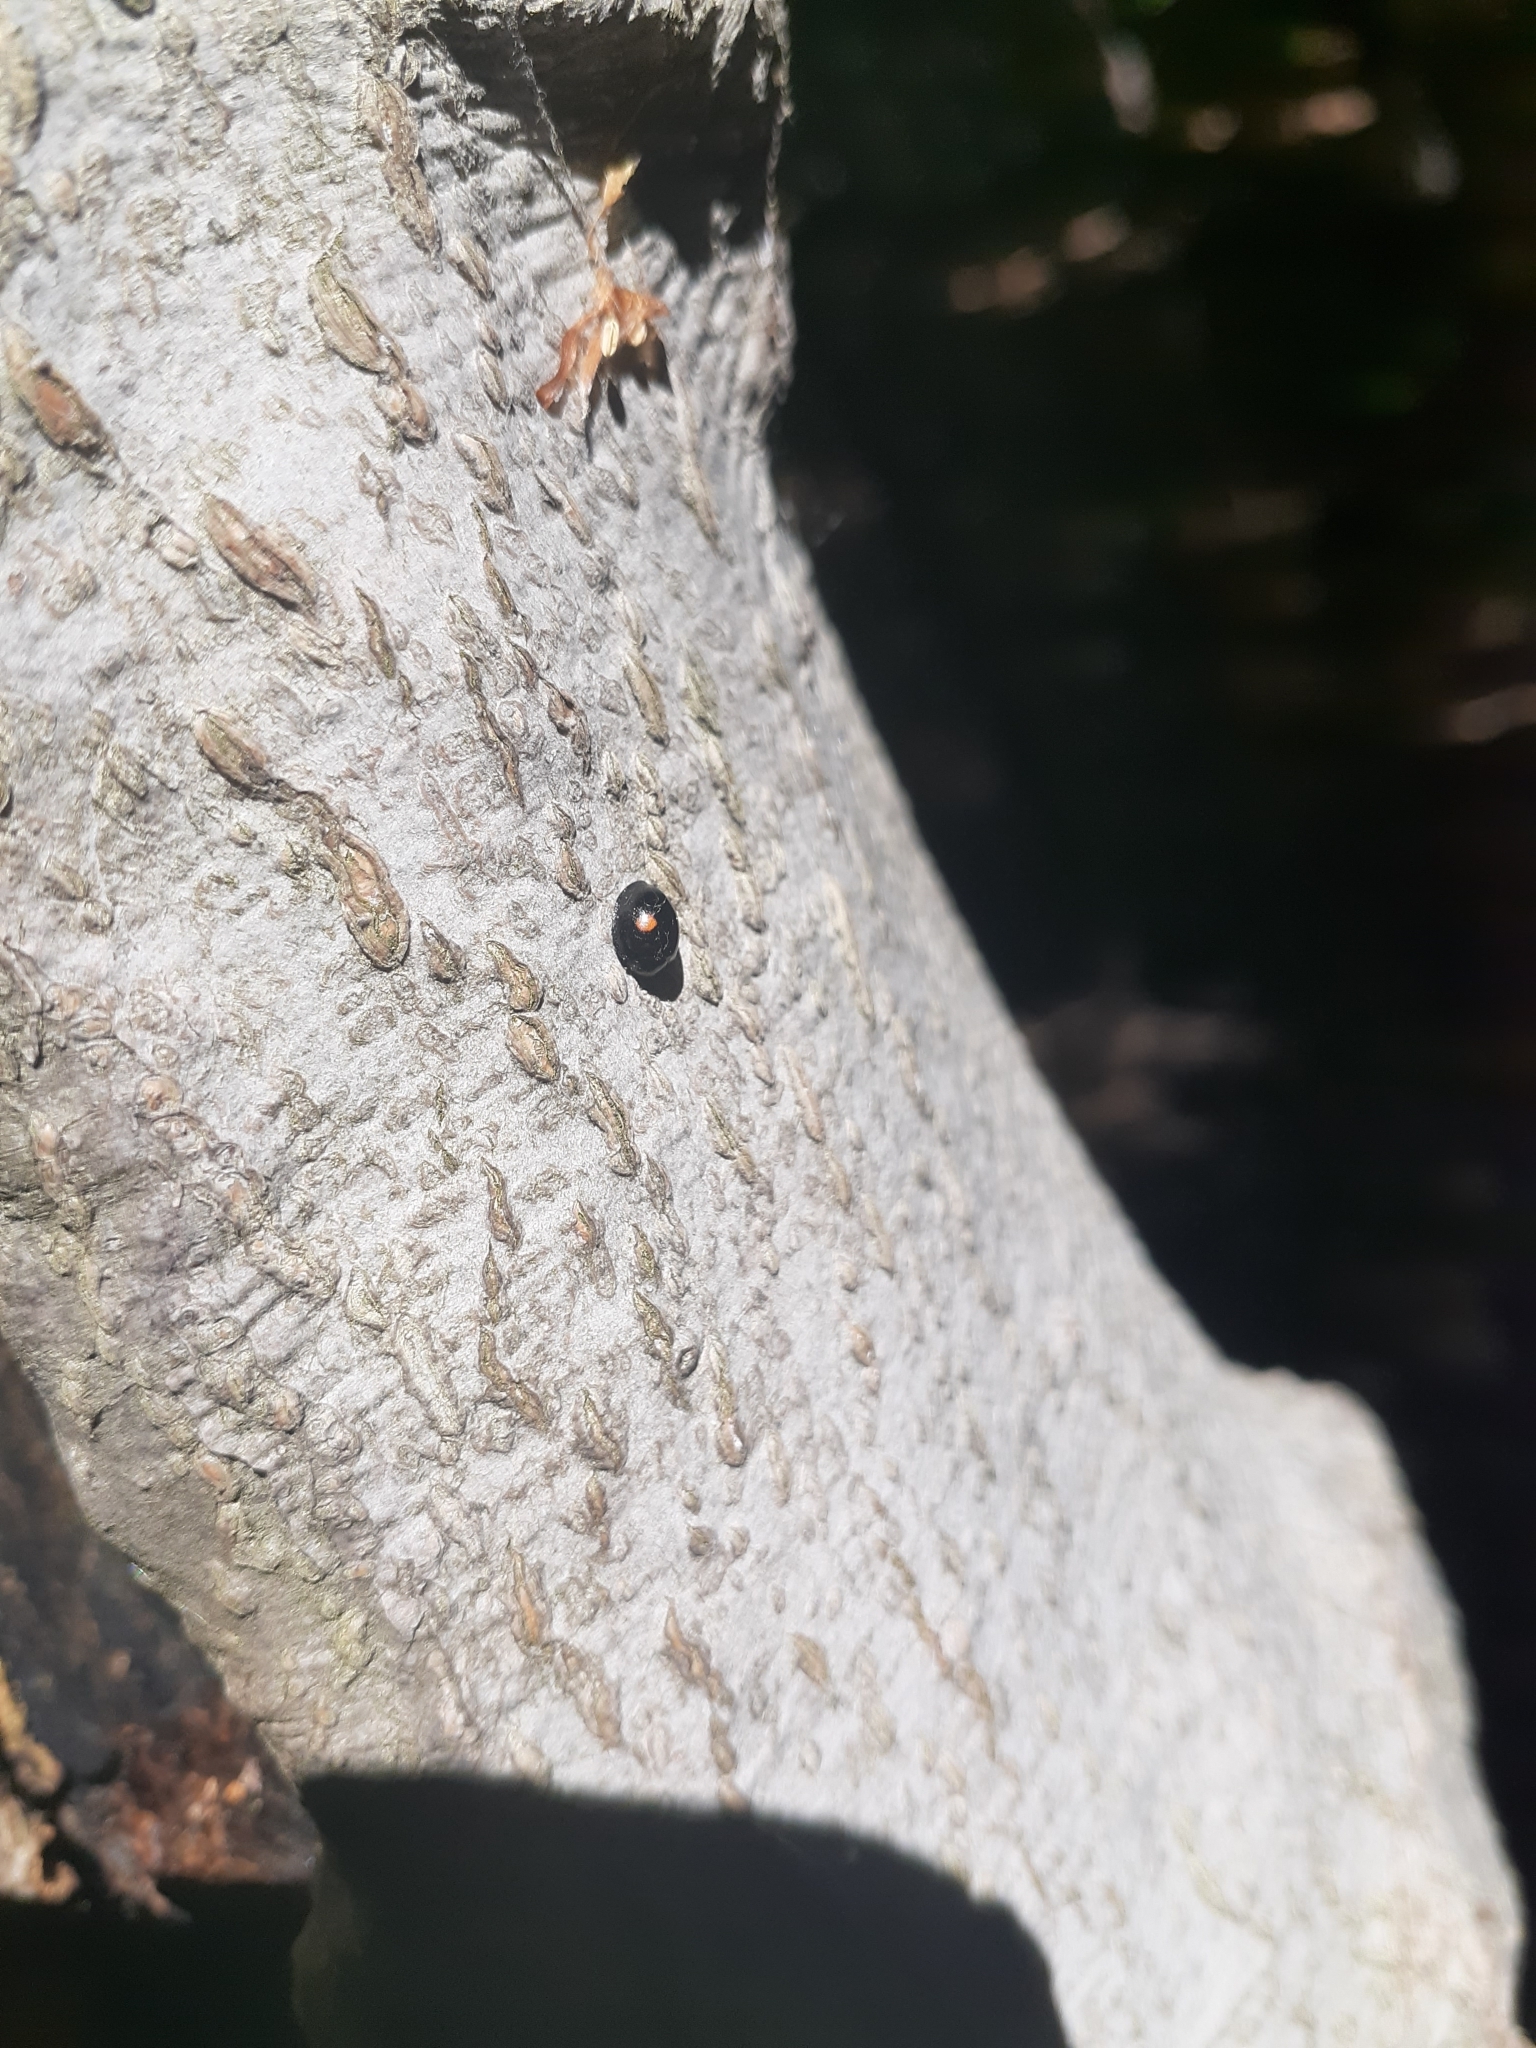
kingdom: Animalia
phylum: Arthropoda
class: Insecta
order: Coleoptera
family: Coccinellidae
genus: Chilocorus
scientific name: Chilocorus stigma
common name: Twicestabbed lady beetle
